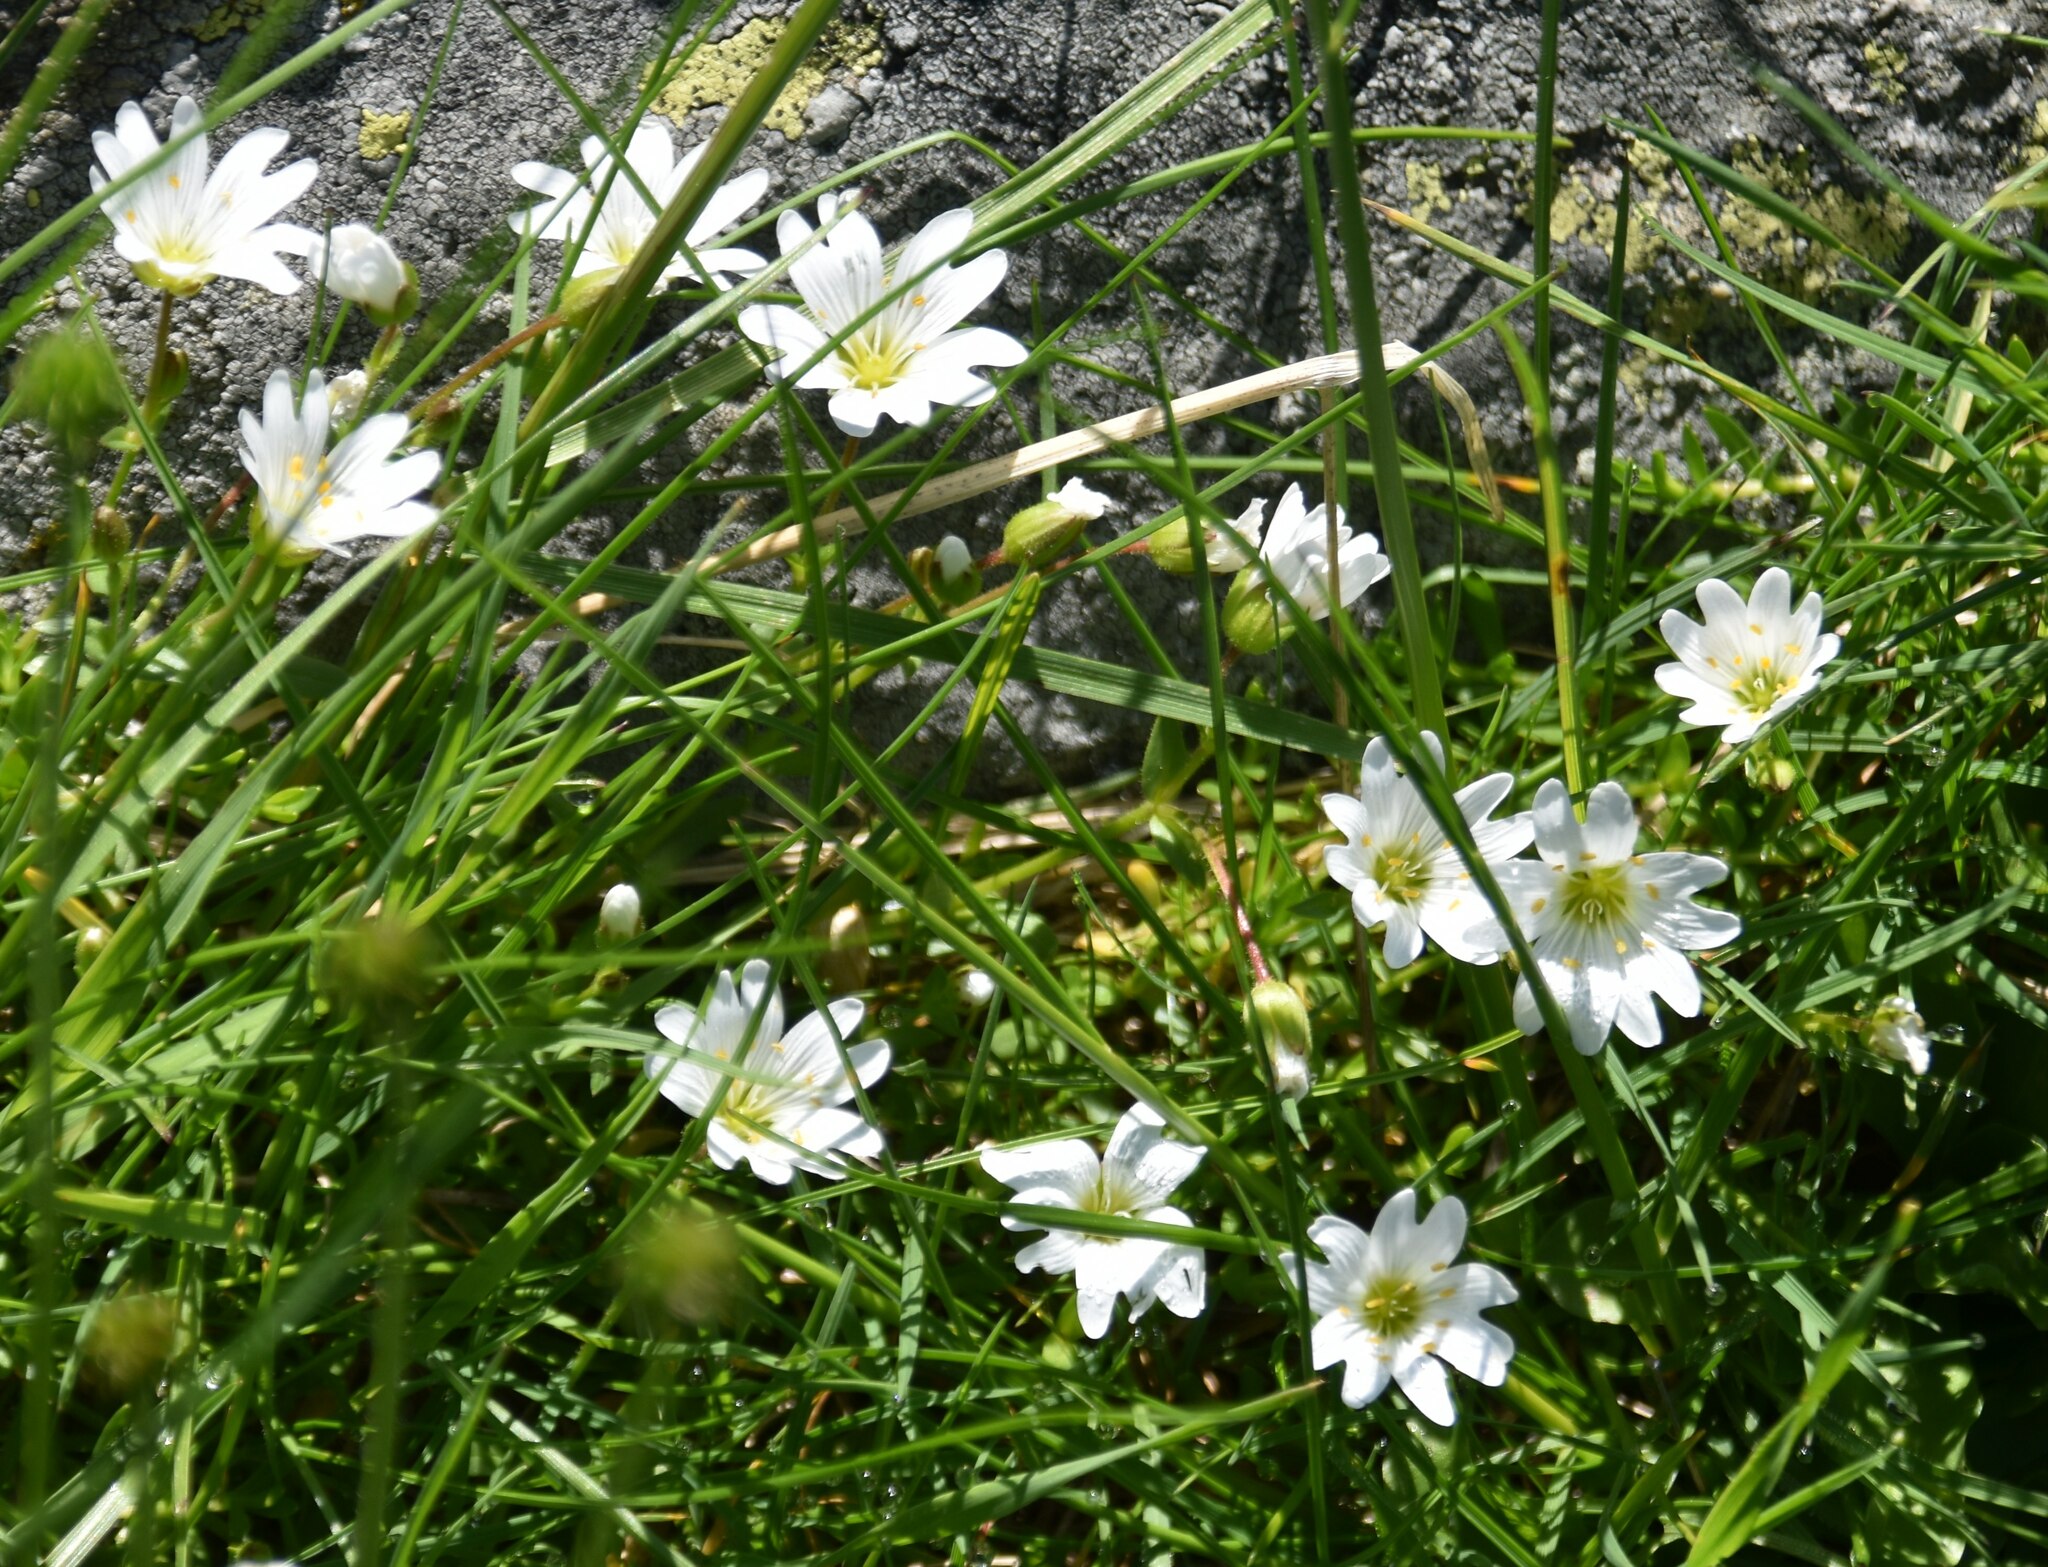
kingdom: Plantae
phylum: Tracheophyta
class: Magnoliopsida
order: Caryophyllales
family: Caryophyllaceae
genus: Dichodon
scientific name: Dichodon cerastoides
